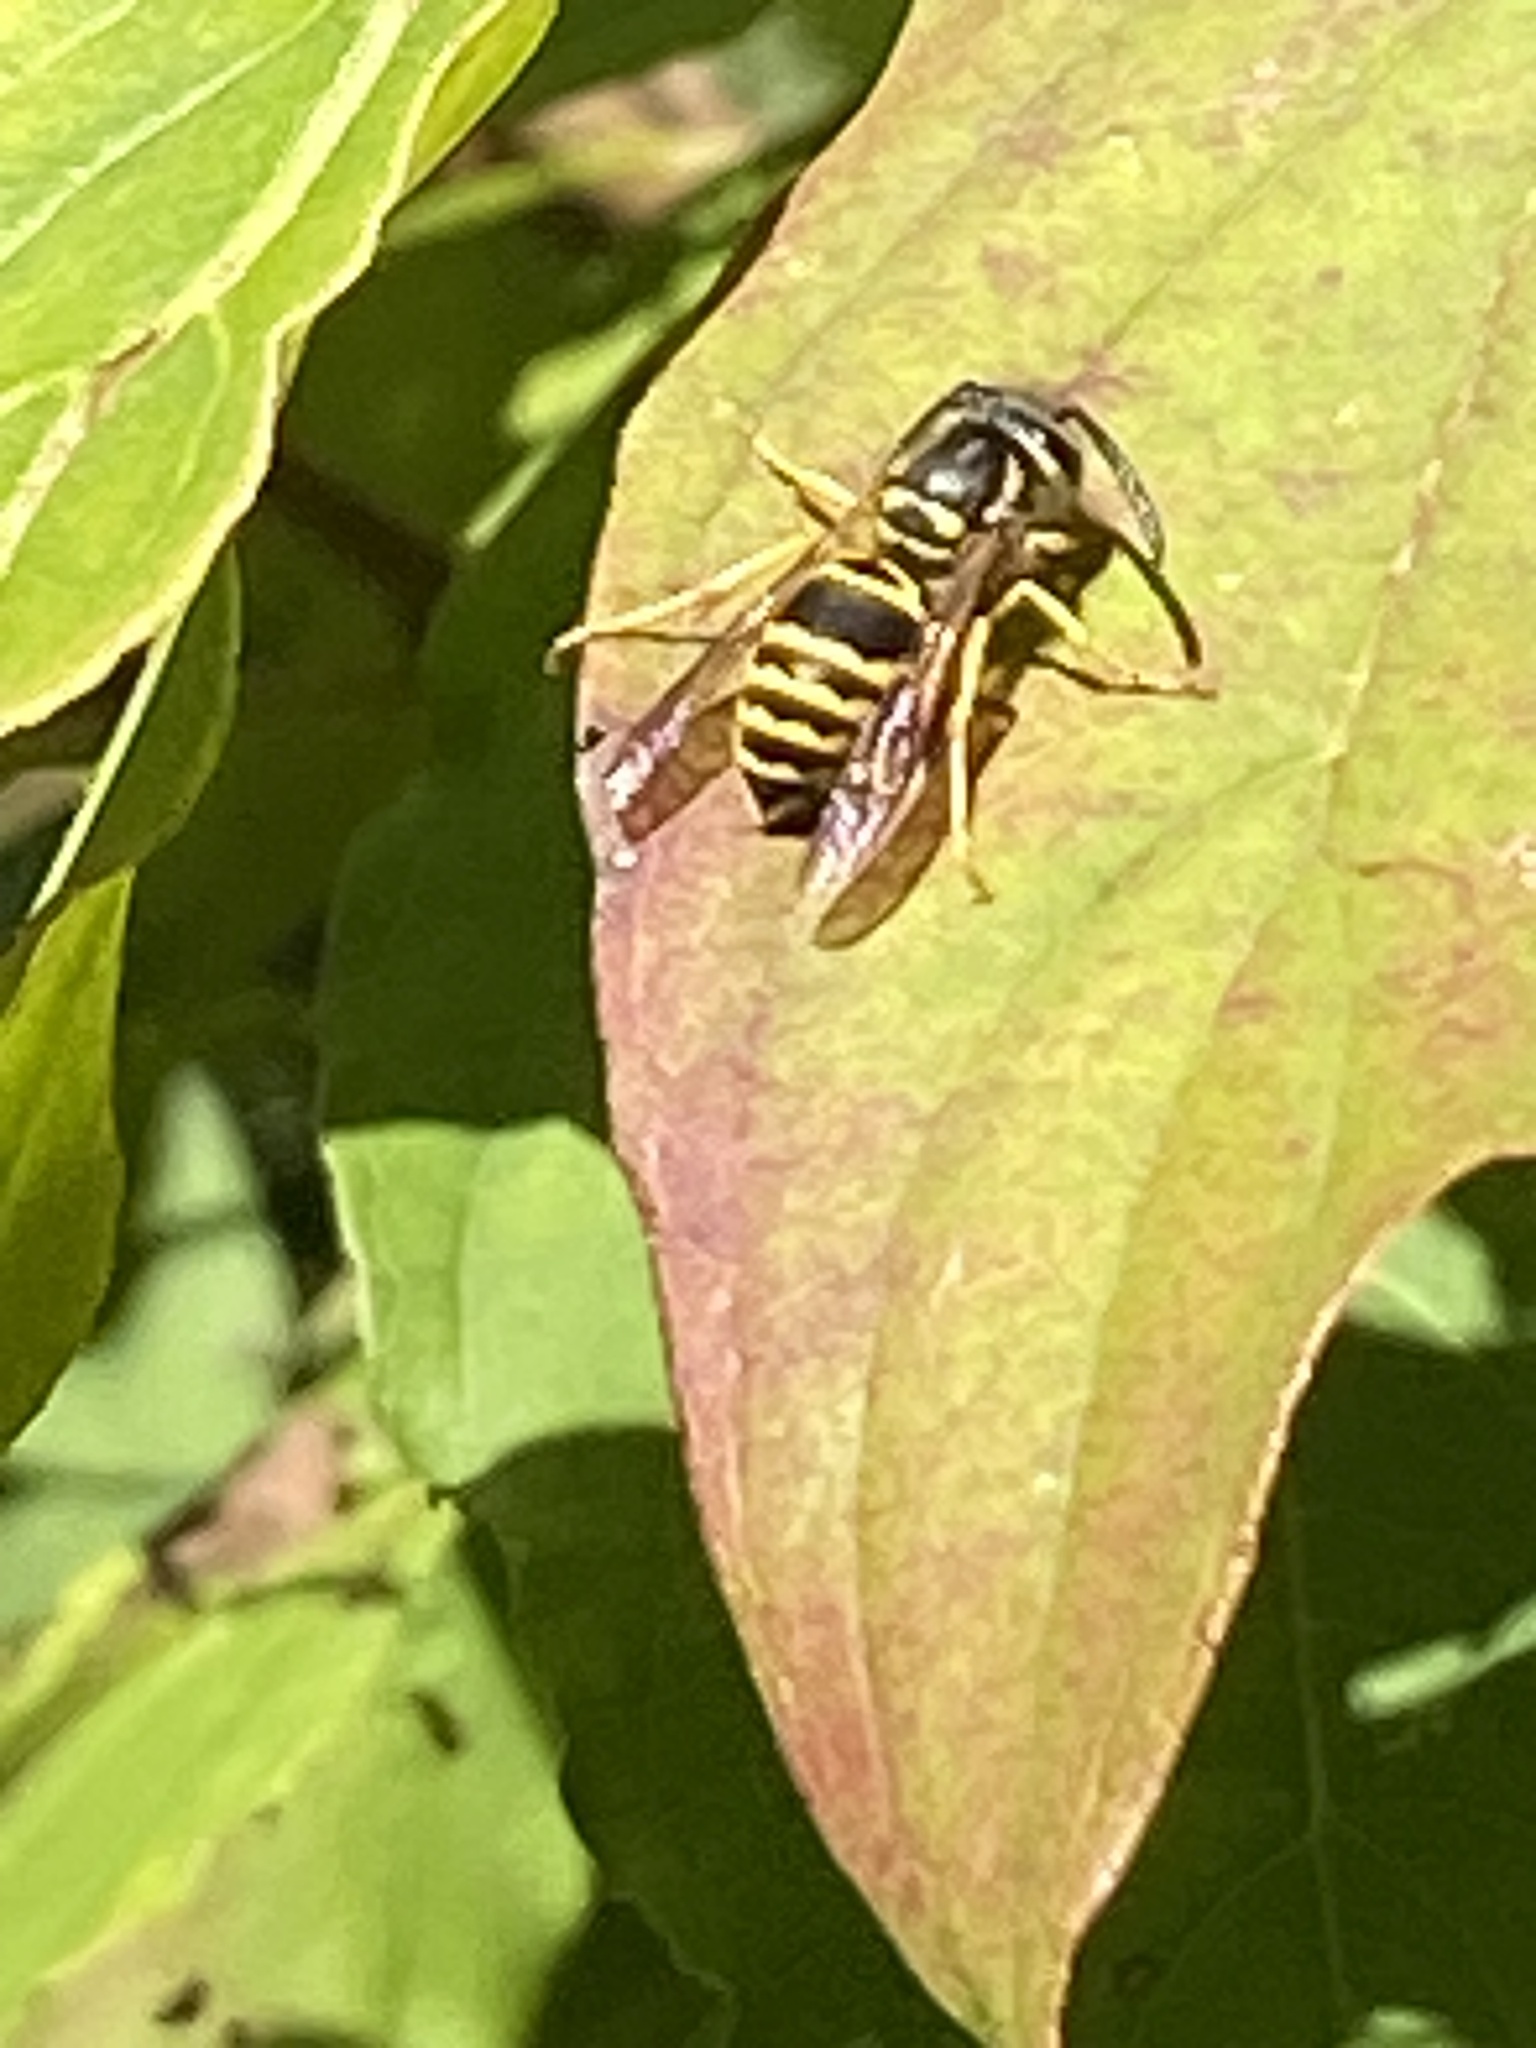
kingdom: Animalia
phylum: Arthropoda
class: Insecta
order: Hymenoptera
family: Vespidae
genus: Vespula
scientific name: Vespula maculifrons
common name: Eastern yellowjacket
